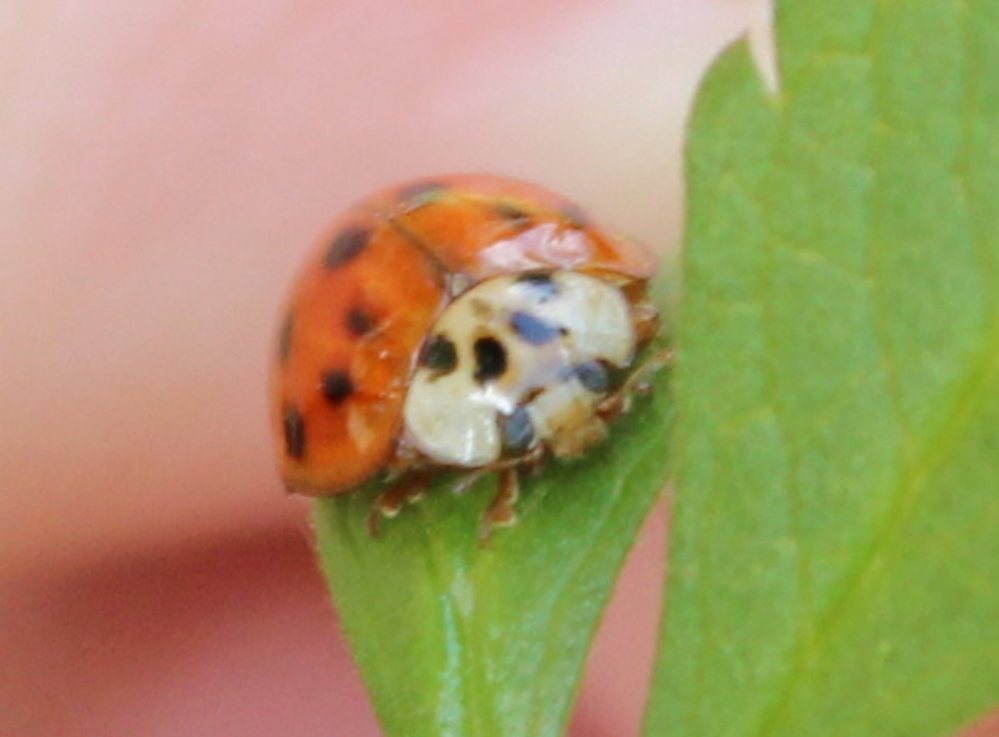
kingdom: Animalia
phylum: Arthropoda
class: Insecta
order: Coleoptera
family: Coccinellidae
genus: Harmonia
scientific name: Harmonia axyridis
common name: Harlequin ladybird
